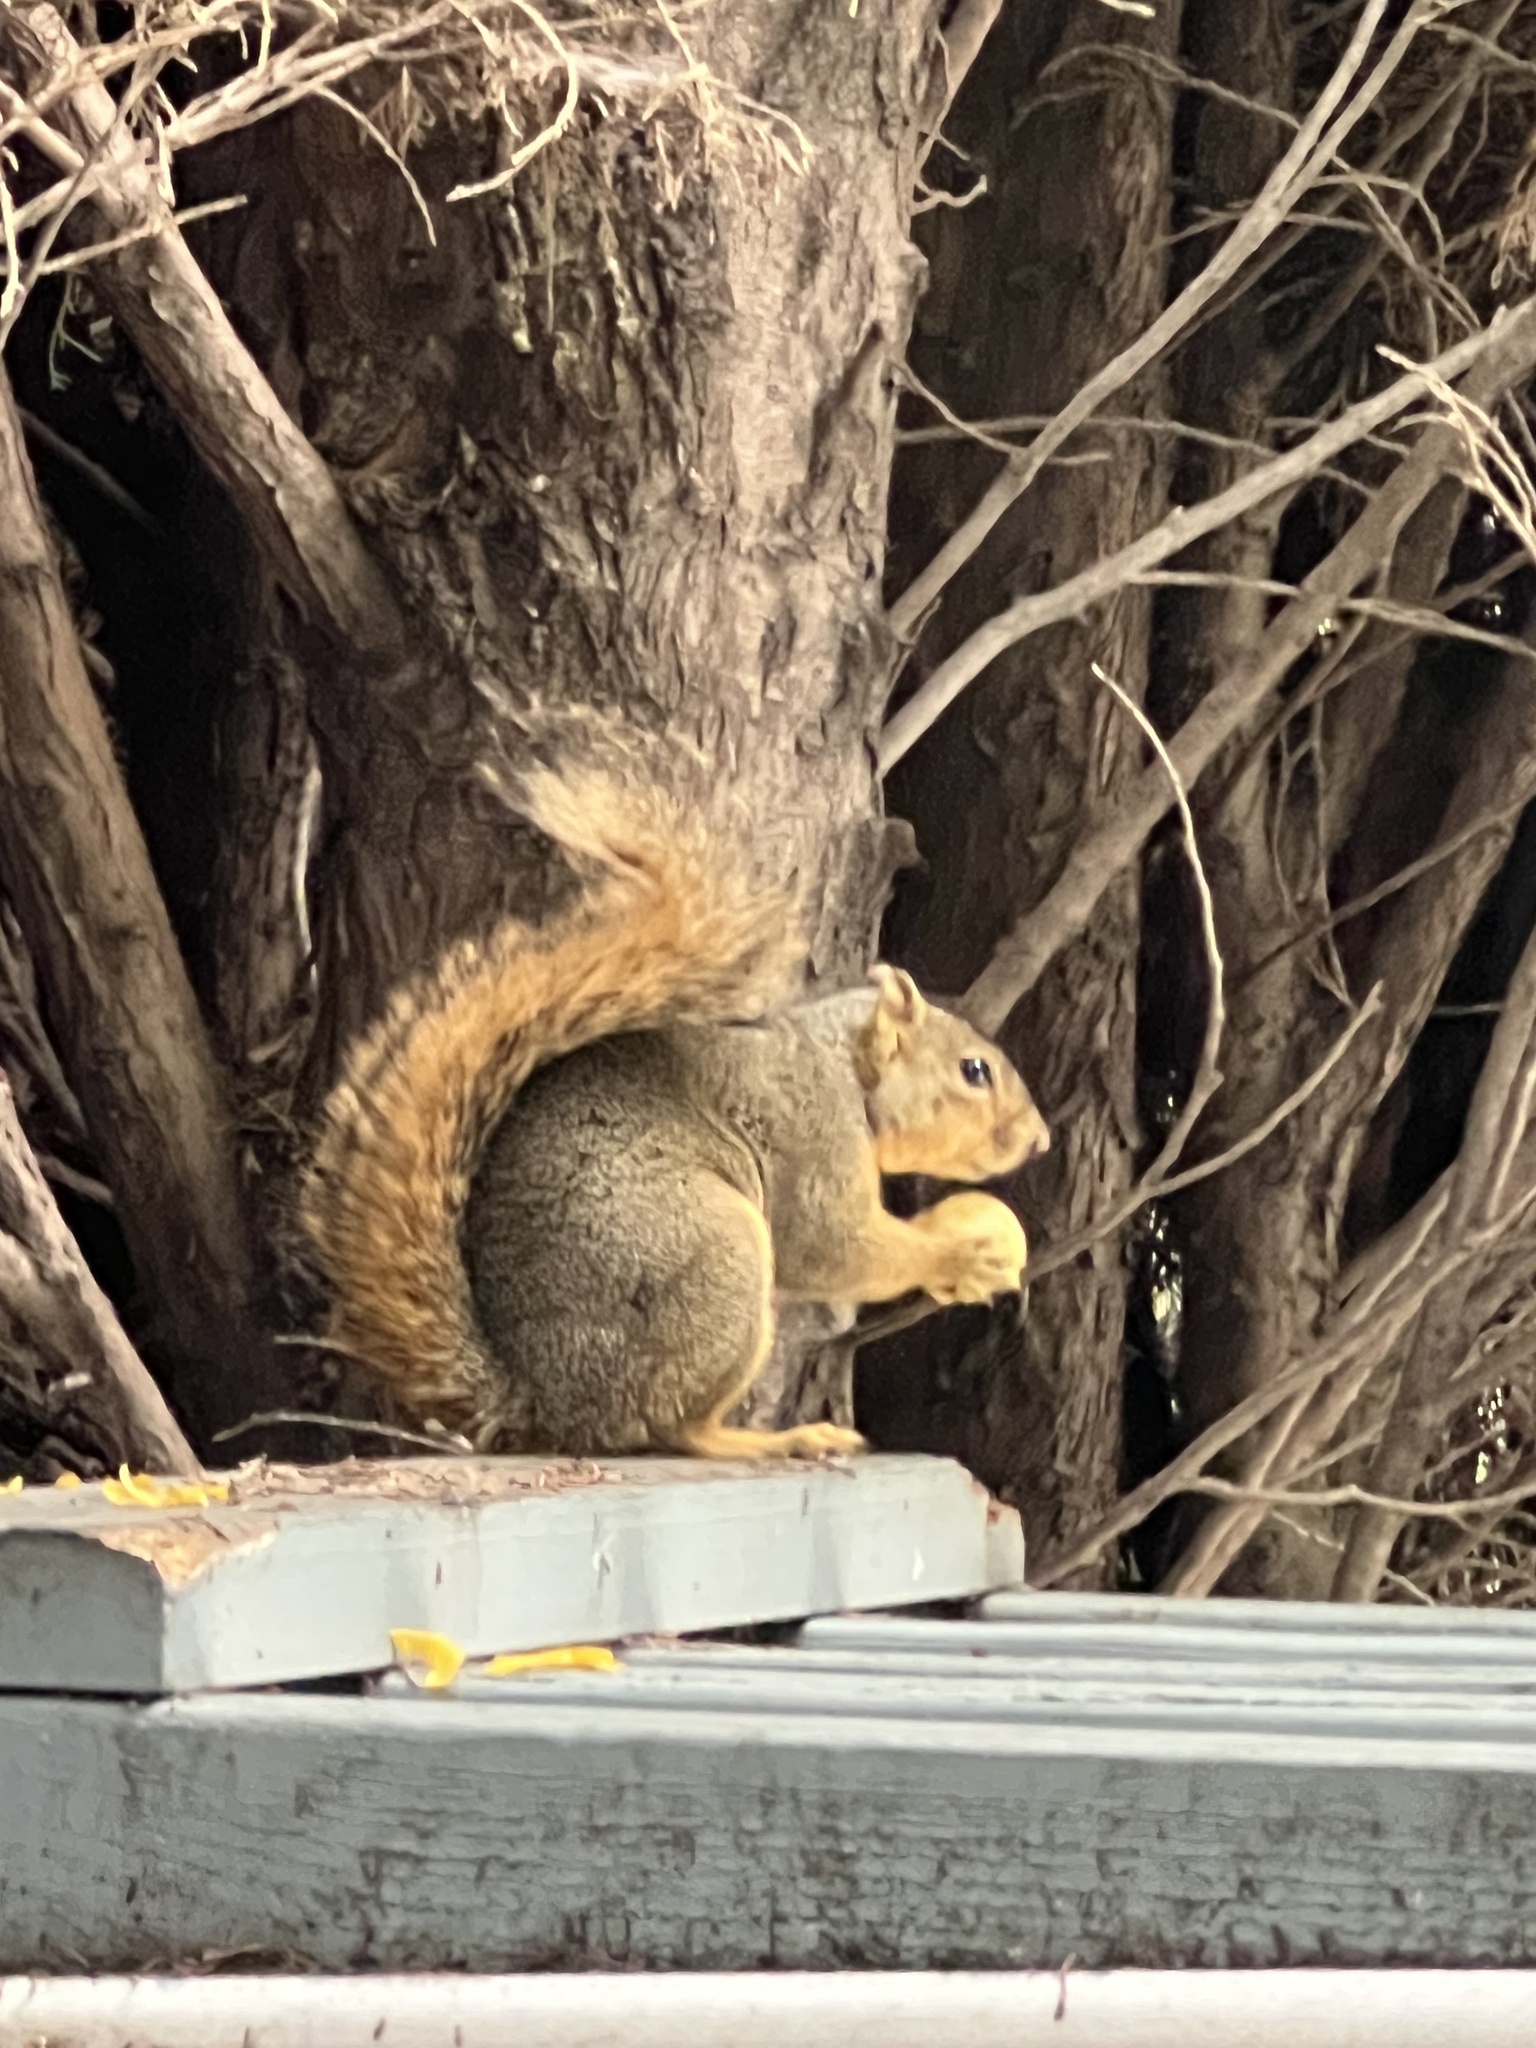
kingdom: Animalia
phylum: Chordata
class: Mammalia
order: Rodentia
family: Sciuridae
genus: Sciurus
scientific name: Sciurus niger
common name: Fox squirrel
